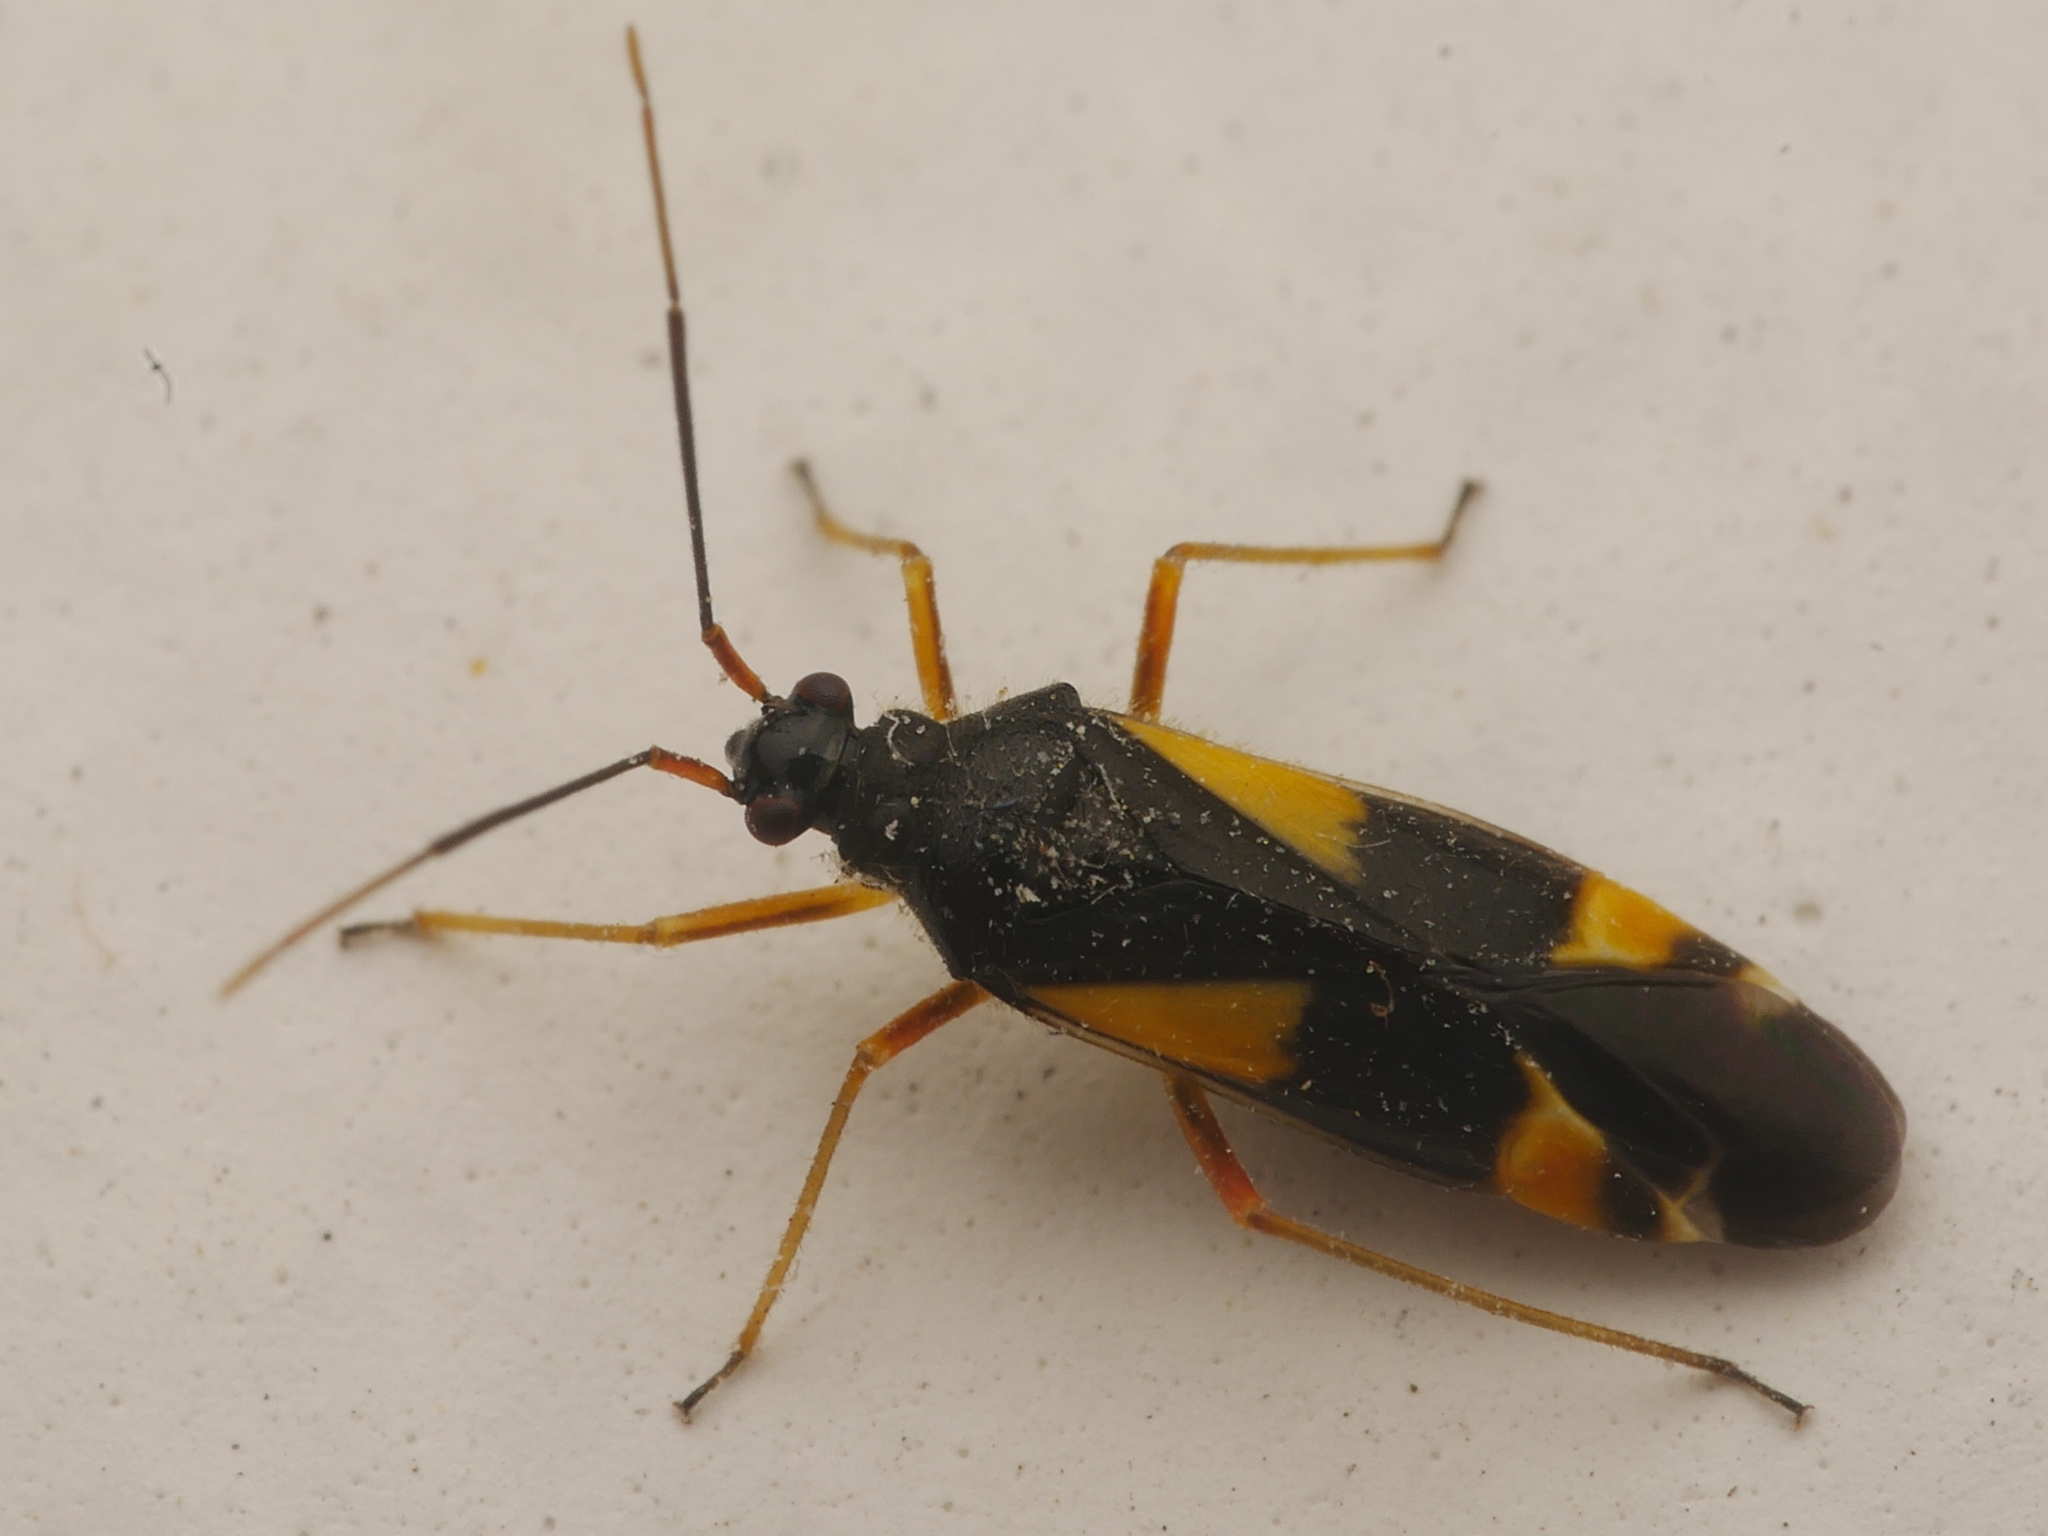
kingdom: Animalia
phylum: Arthropoda
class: Insecta
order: Hemiptera
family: Miridae
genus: Dryophilocoris
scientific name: Dryophilocoris flavoquadrimaculatus
